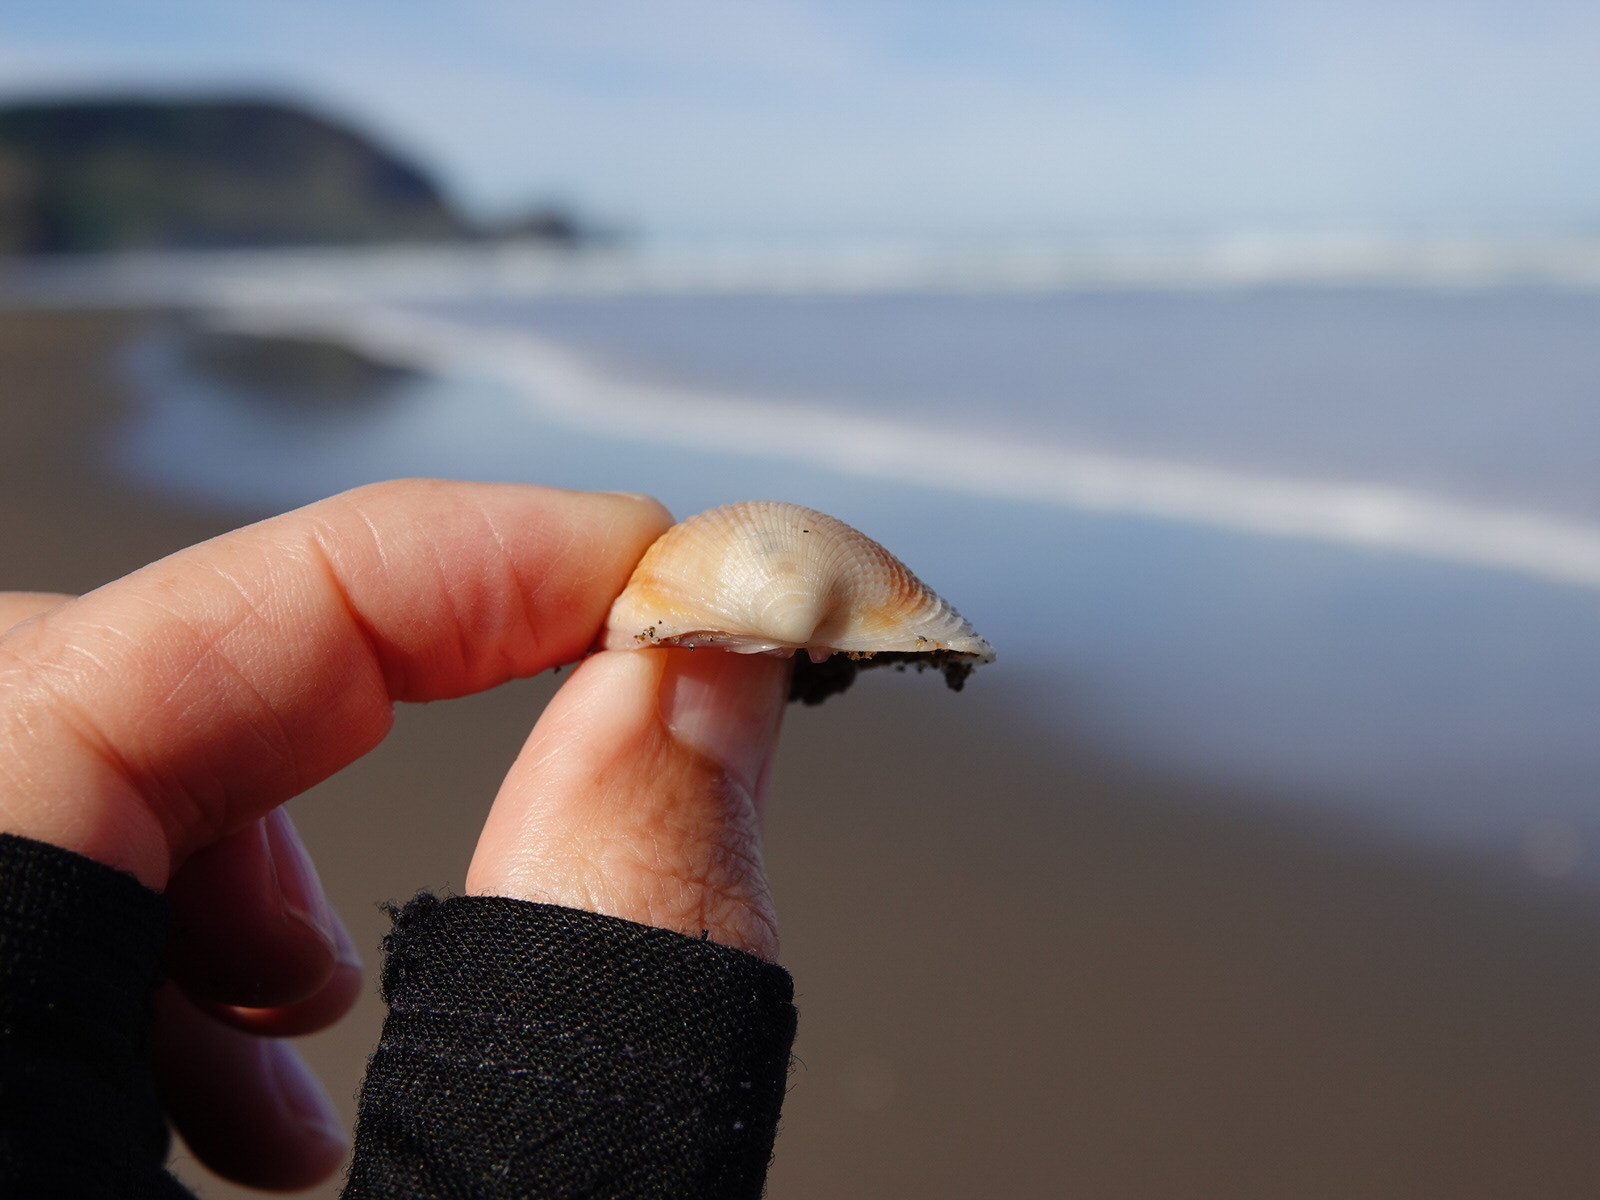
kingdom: Animalia
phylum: Mollusca
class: Bivalvia
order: Venerida
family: Veneridae
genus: Austrovenus
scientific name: Austrovenus stutchburyi
